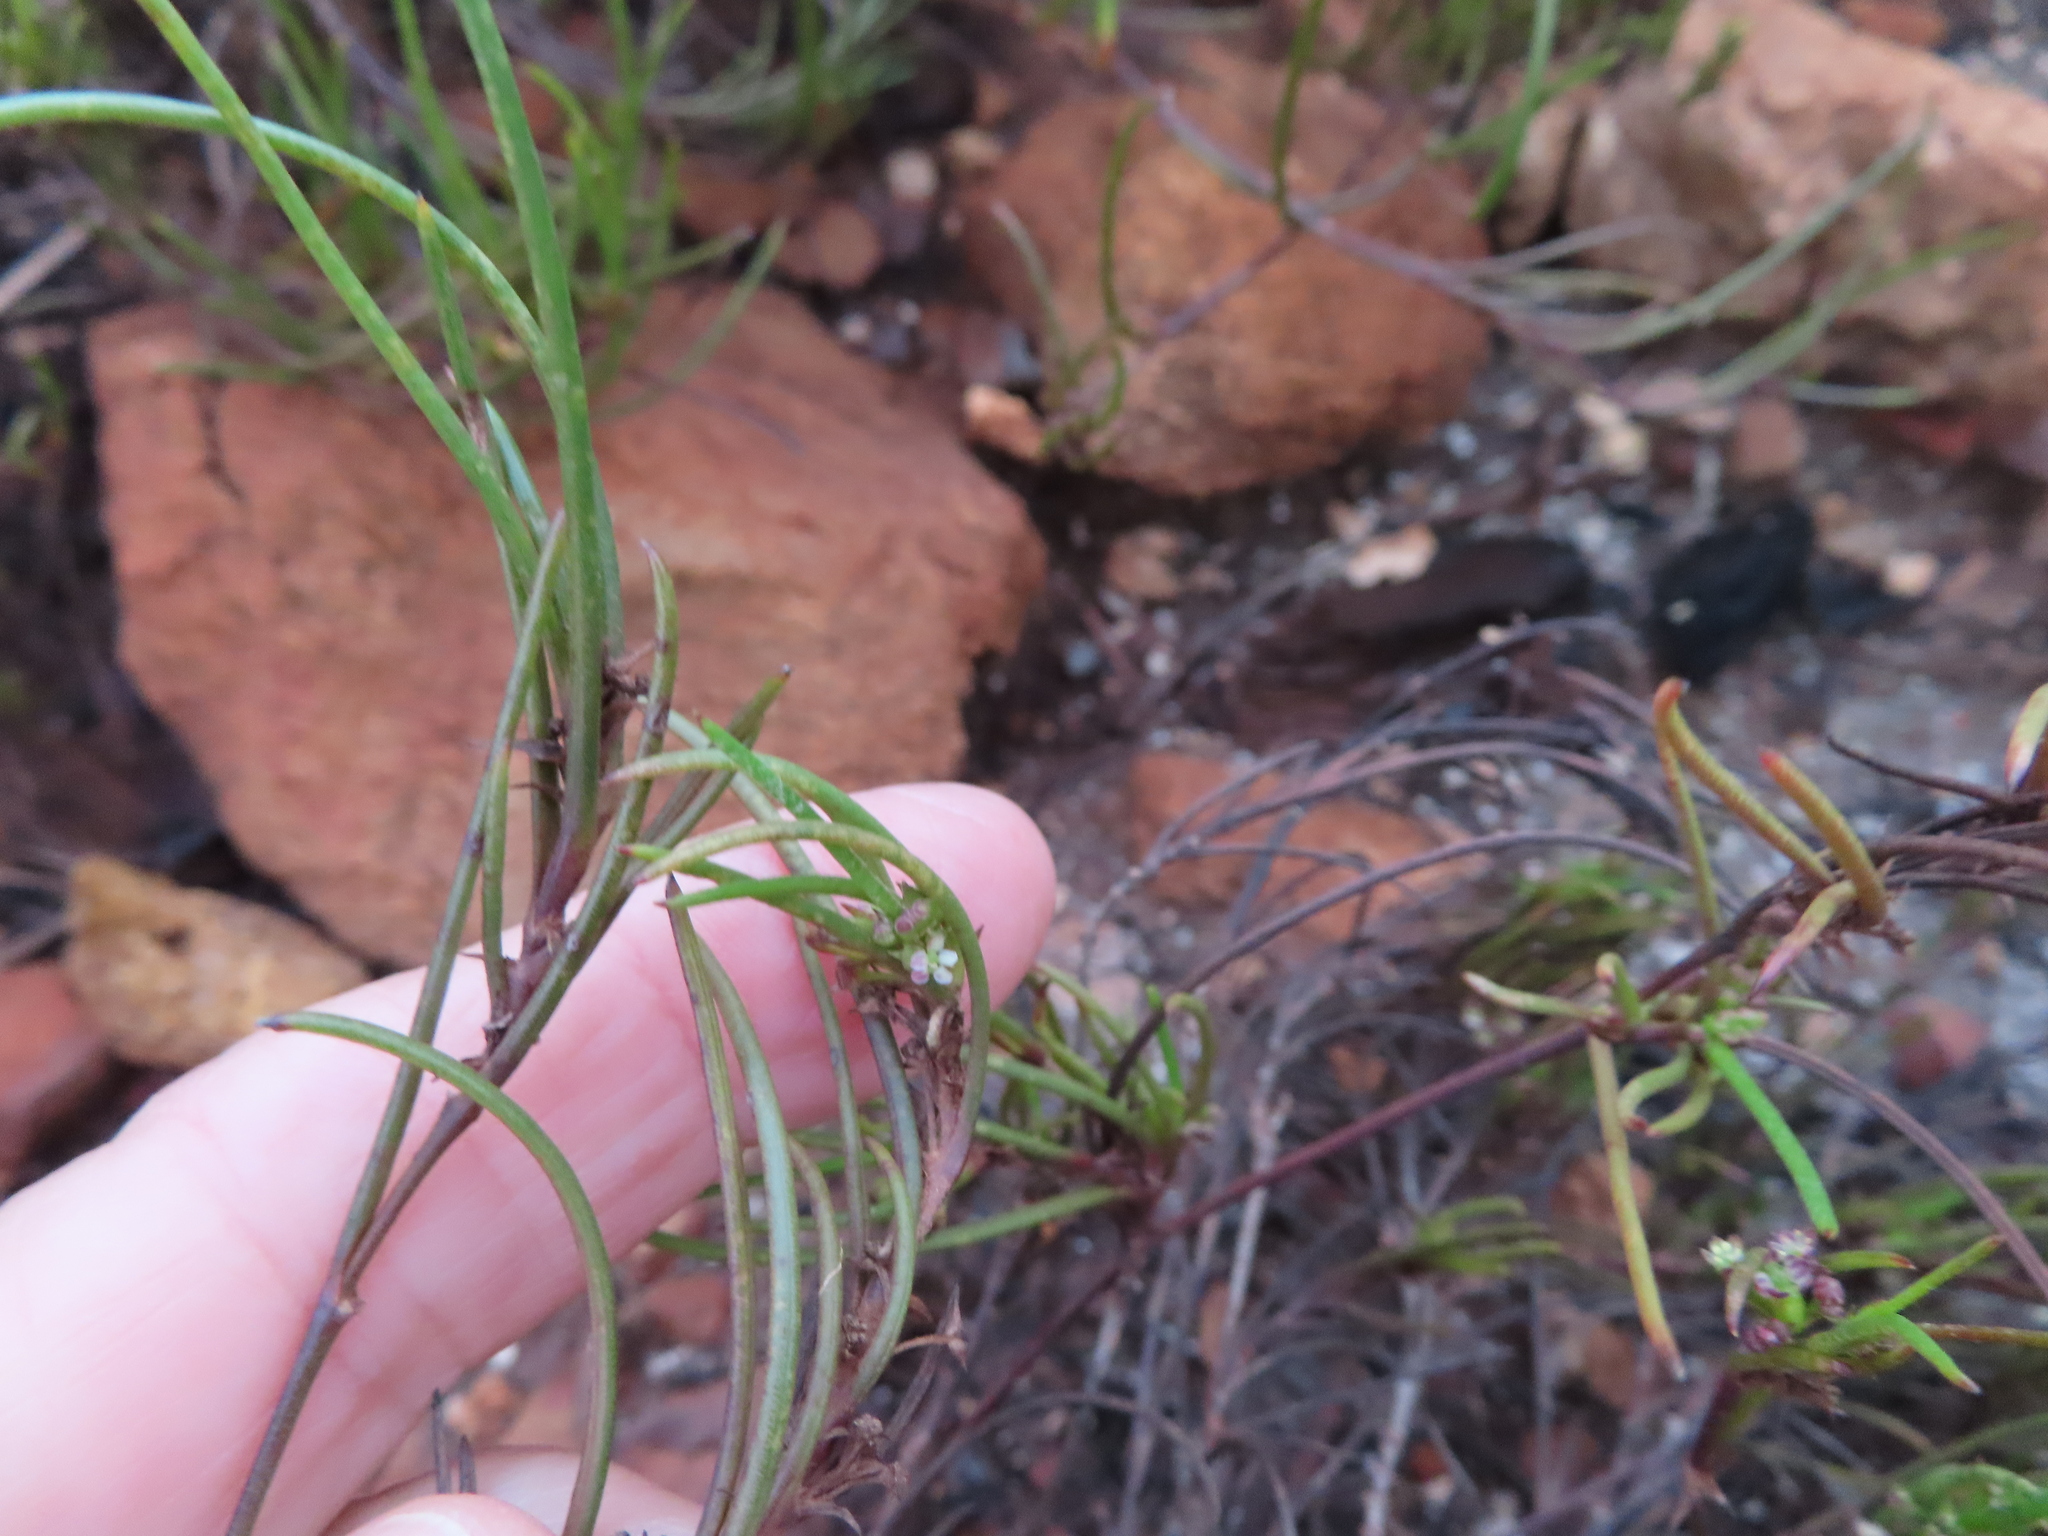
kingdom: Plantae
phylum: Tracheophyta
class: Magnoliopsida
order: Apiales
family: Apiaceae
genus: Centella
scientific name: Centella macrocarpa
